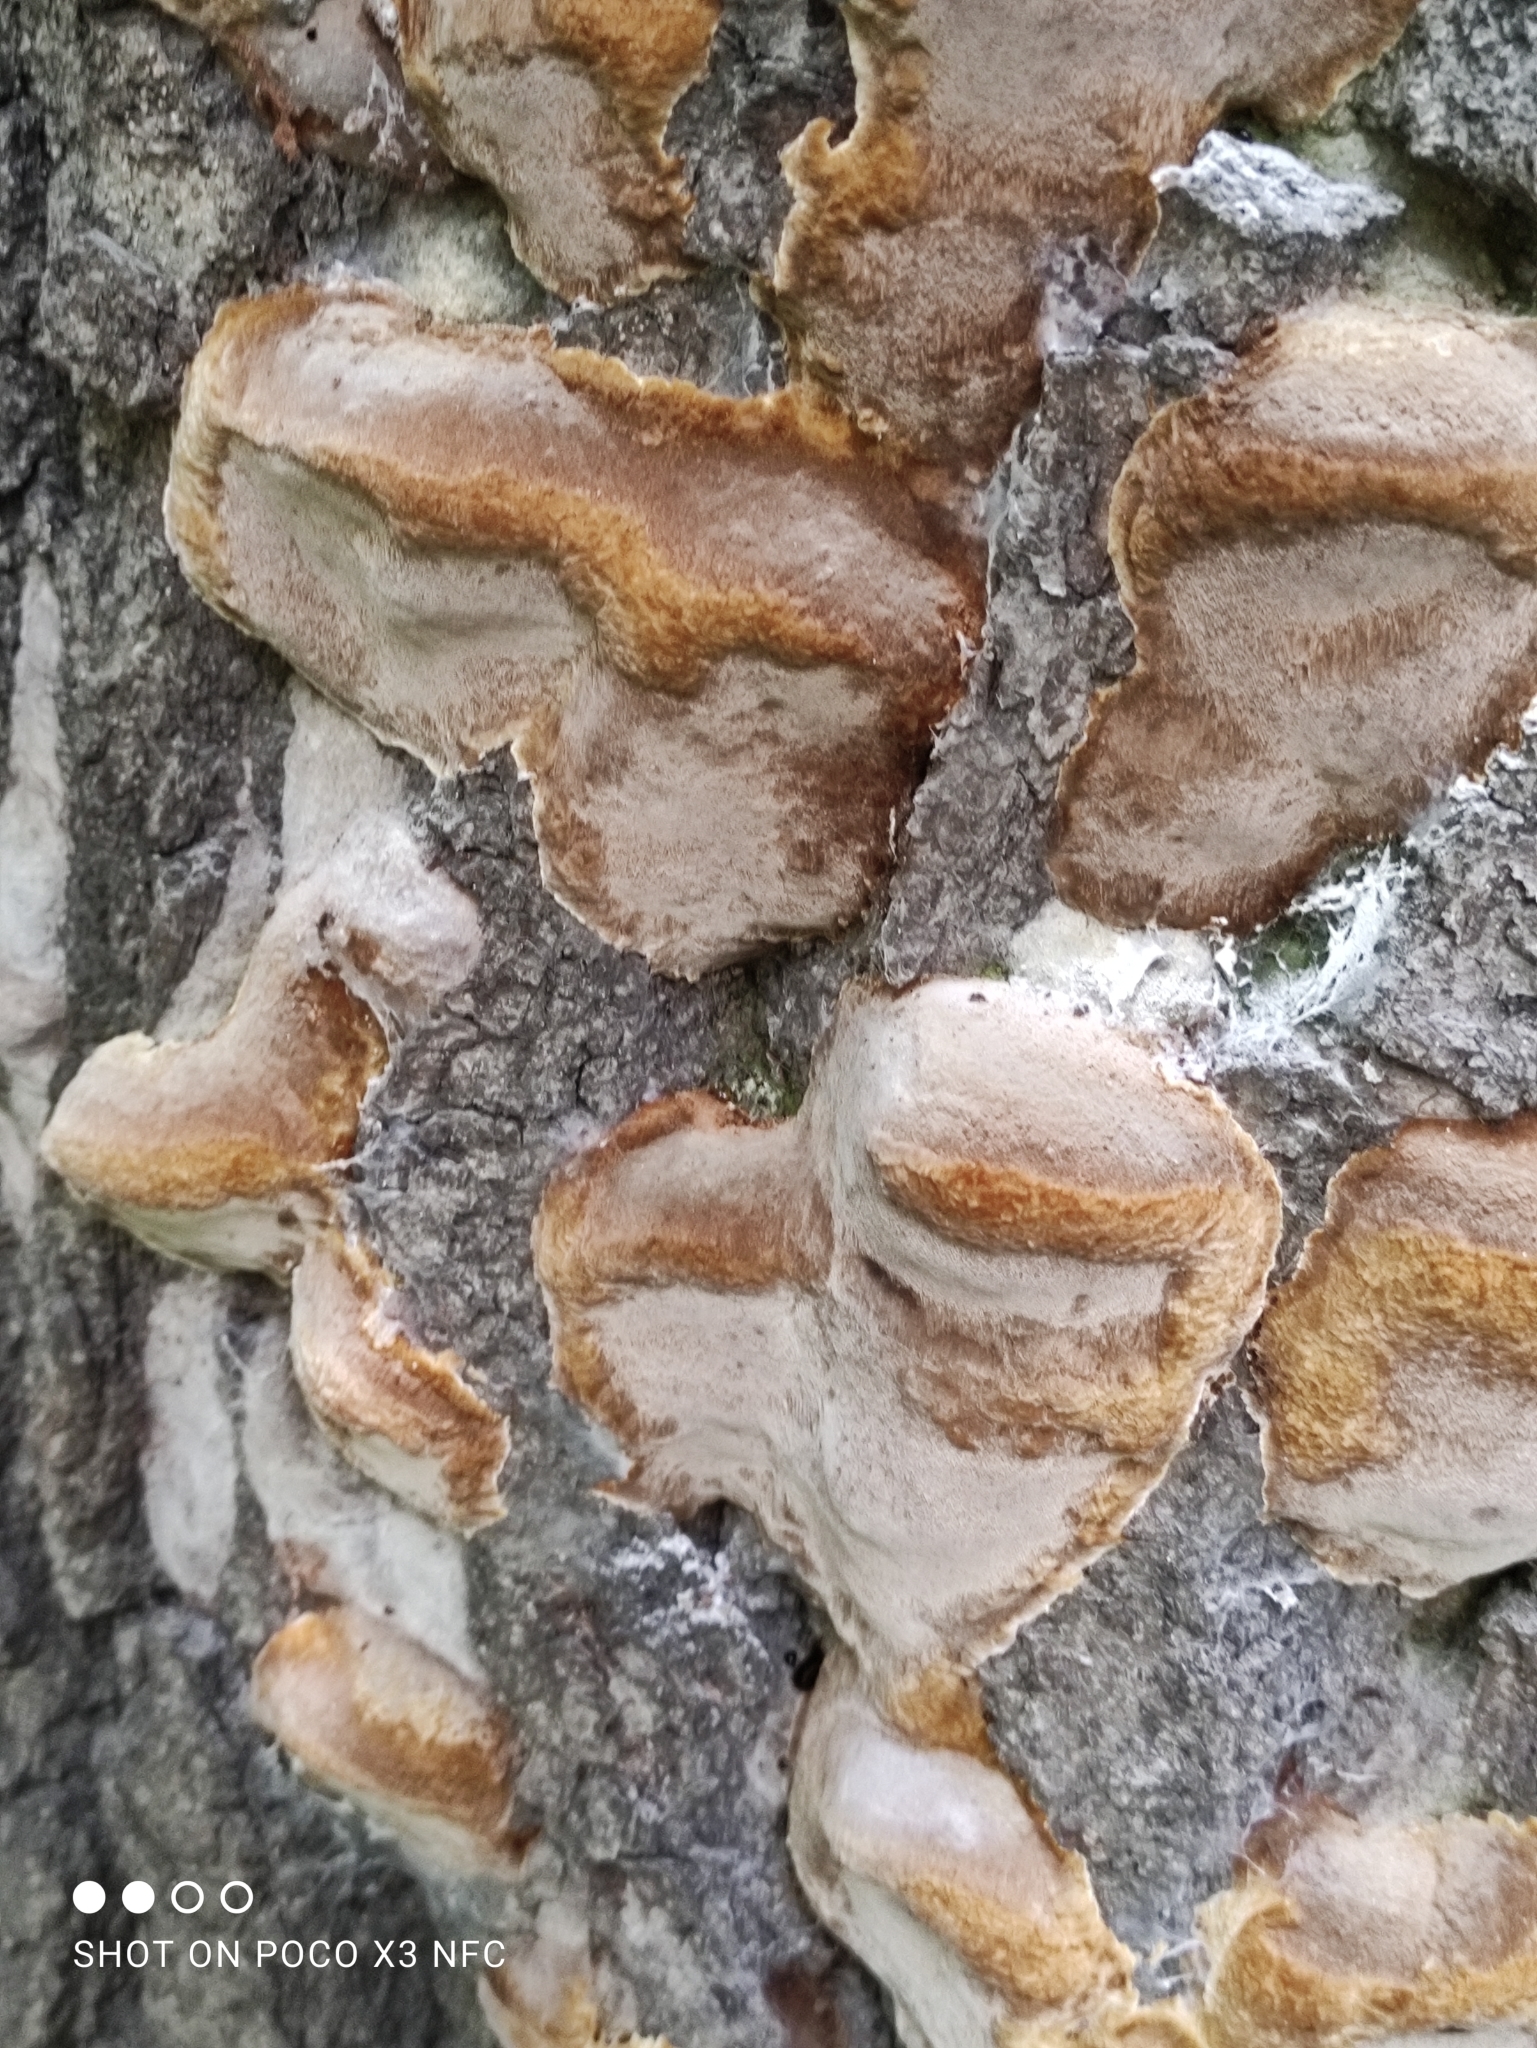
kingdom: Fungi
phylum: Basidiomycota
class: Agaricomycetes
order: Hymenochaetales
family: Hymenochaetaceae
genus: Phellinus
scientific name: Phellinus tremulae
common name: Aspen bracket
